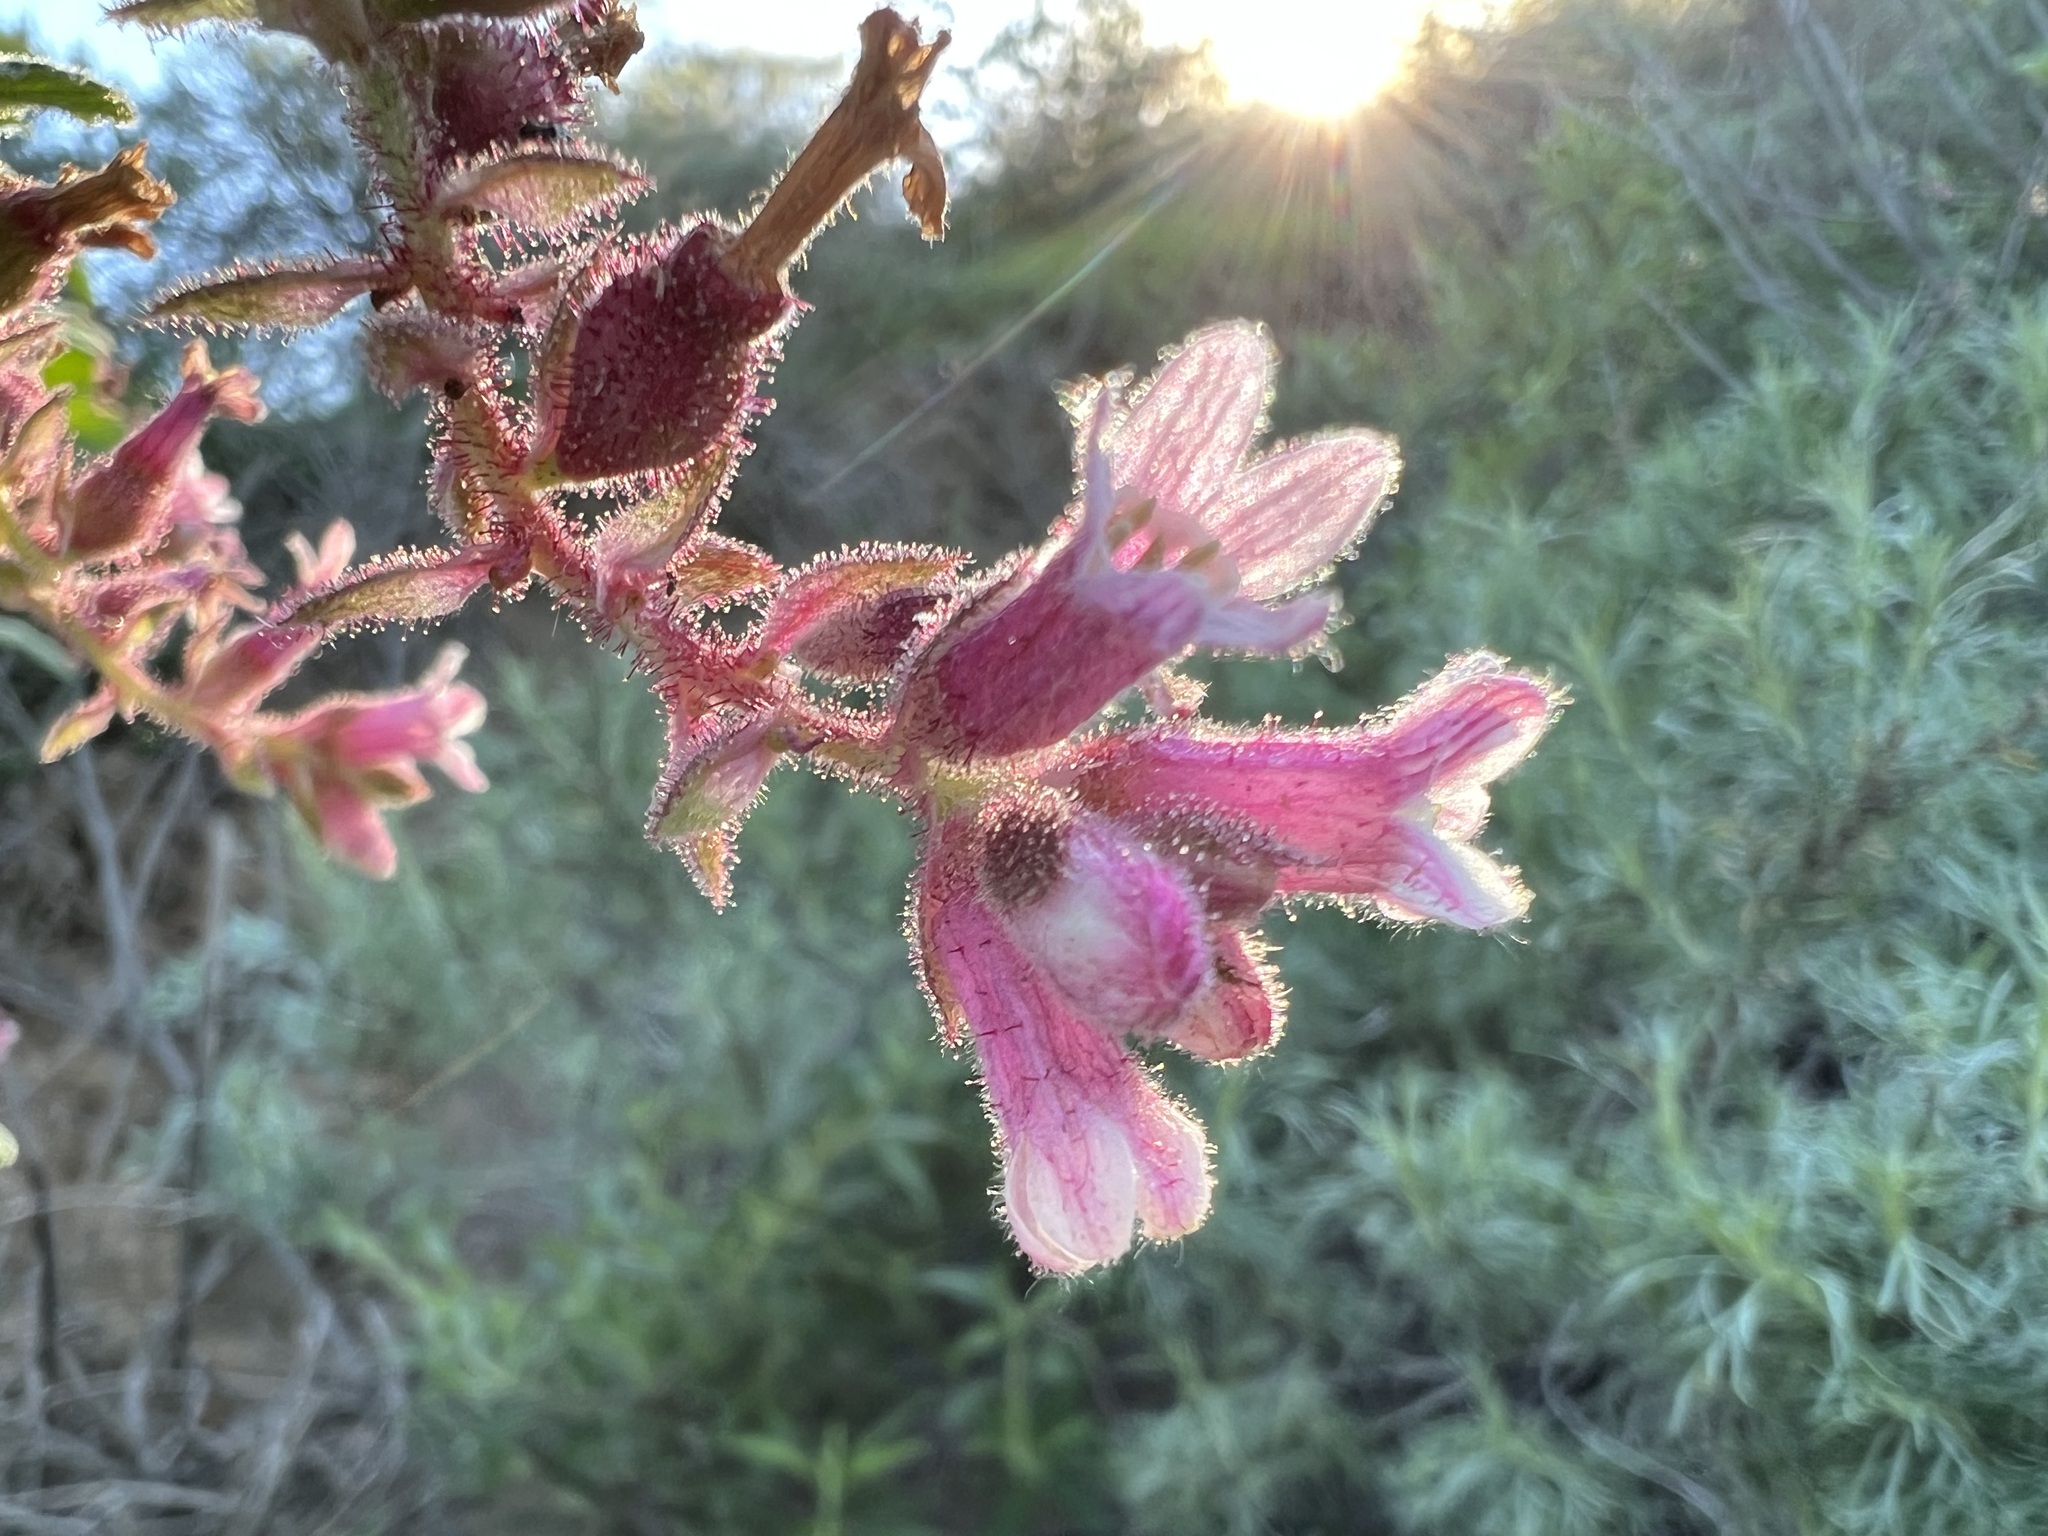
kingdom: Plantae
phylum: Tracheophyta
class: Magnoliopsida
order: Saxifragales
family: Grossulariaceae
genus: Ribes
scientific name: Ribes malvaceum
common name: Chaparral currant
